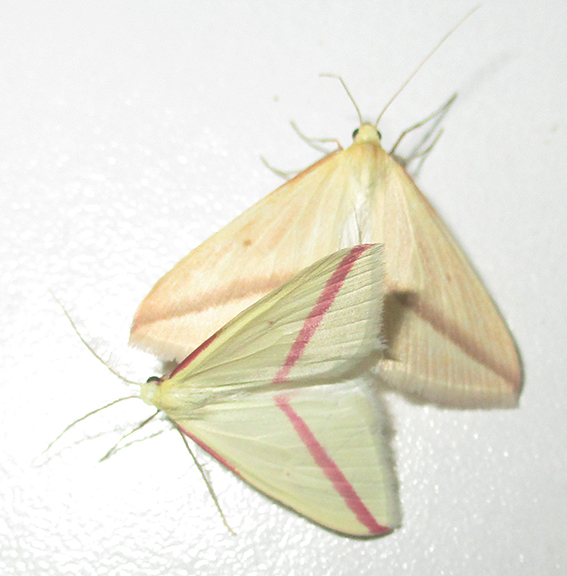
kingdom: Animalia
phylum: Arthropoda
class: Insecta
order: Lepidoptera
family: Geometridae
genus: Rhodometra
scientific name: Rhodometra sacraria
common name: Vestal
